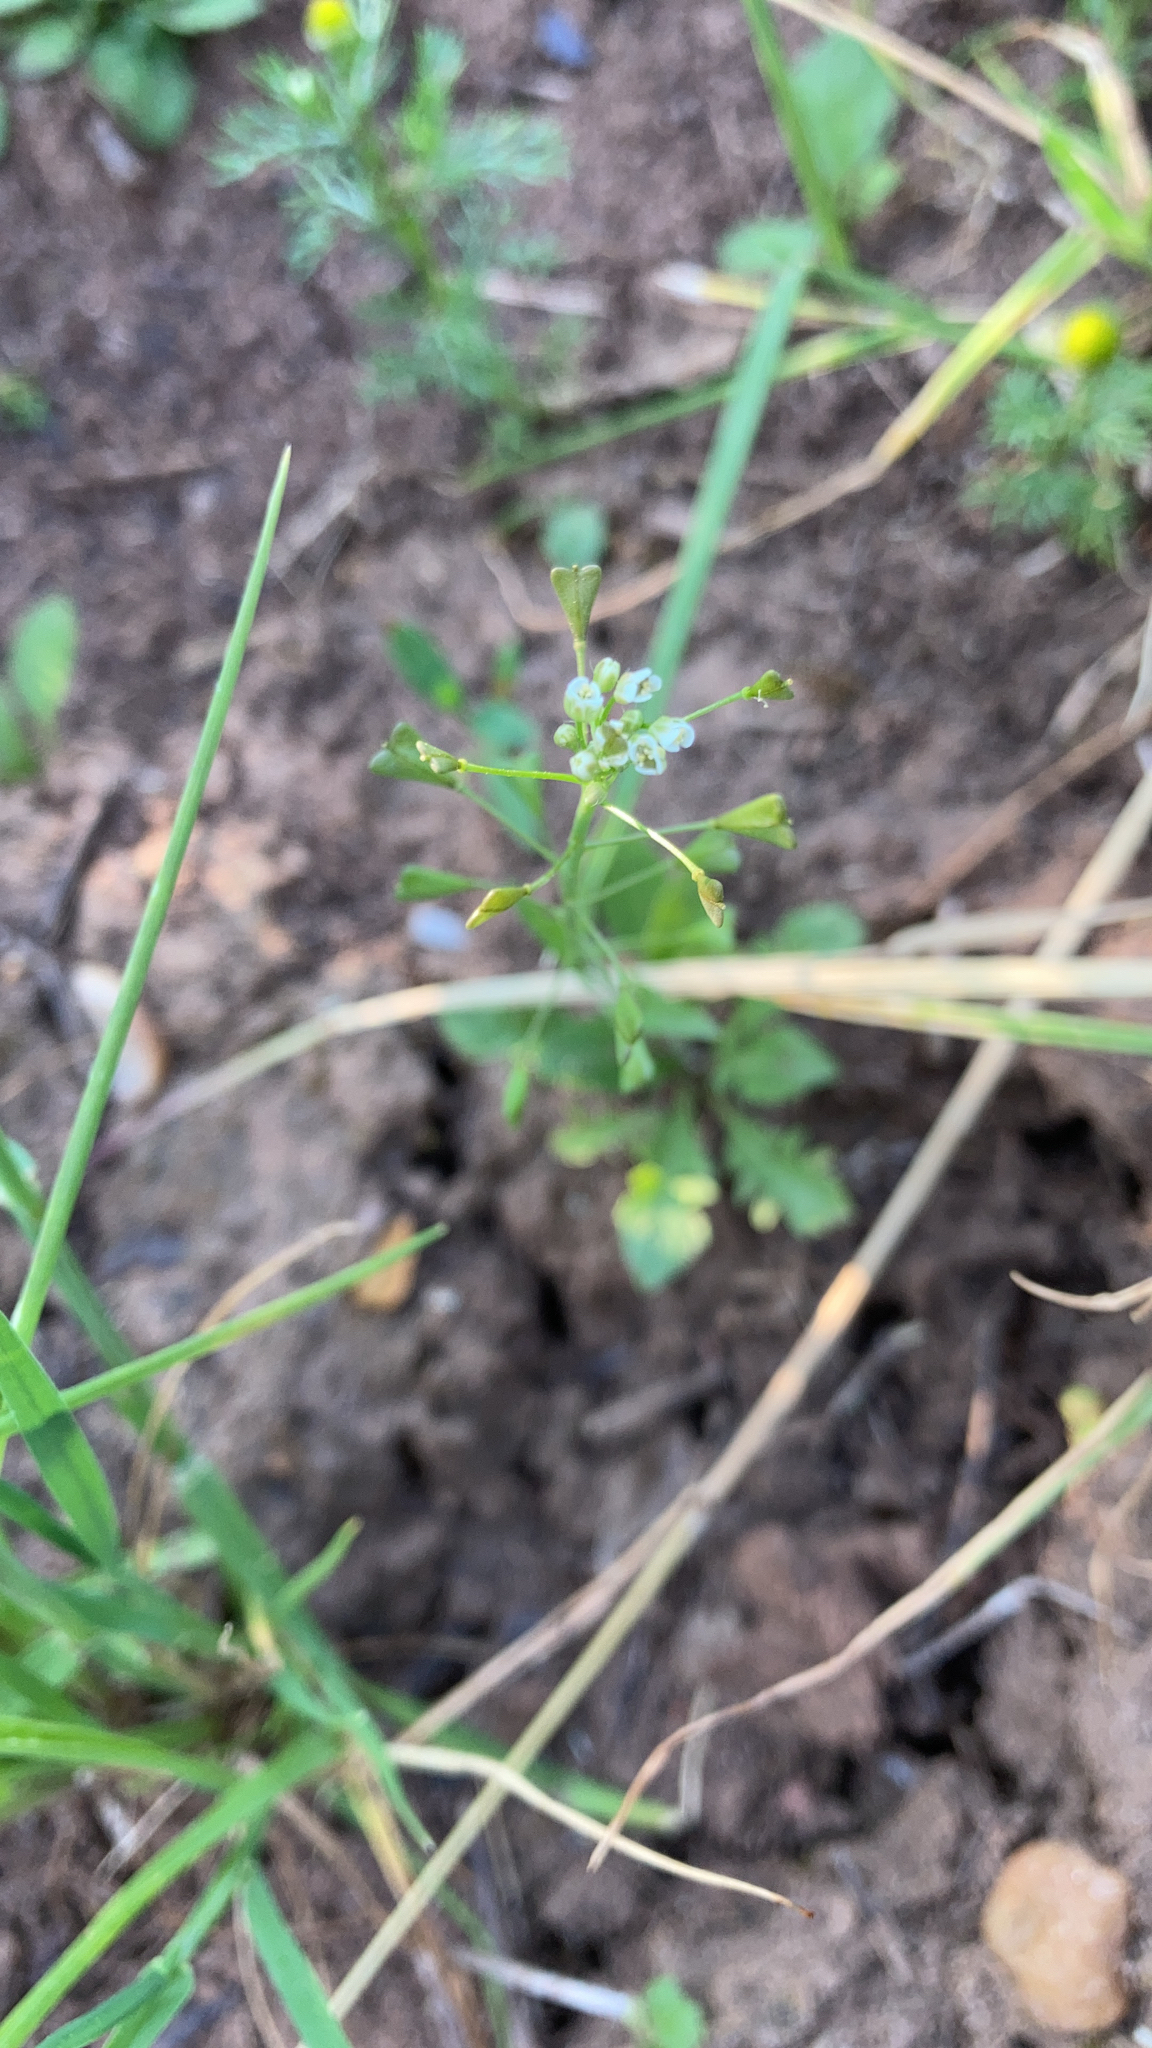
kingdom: Plantae
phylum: Tracheophyta
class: Magnoliopsida
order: Brassicales
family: Brassicaceae
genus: Capsella
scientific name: Capsella bursa-pastoris
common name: Shepherd's purse
